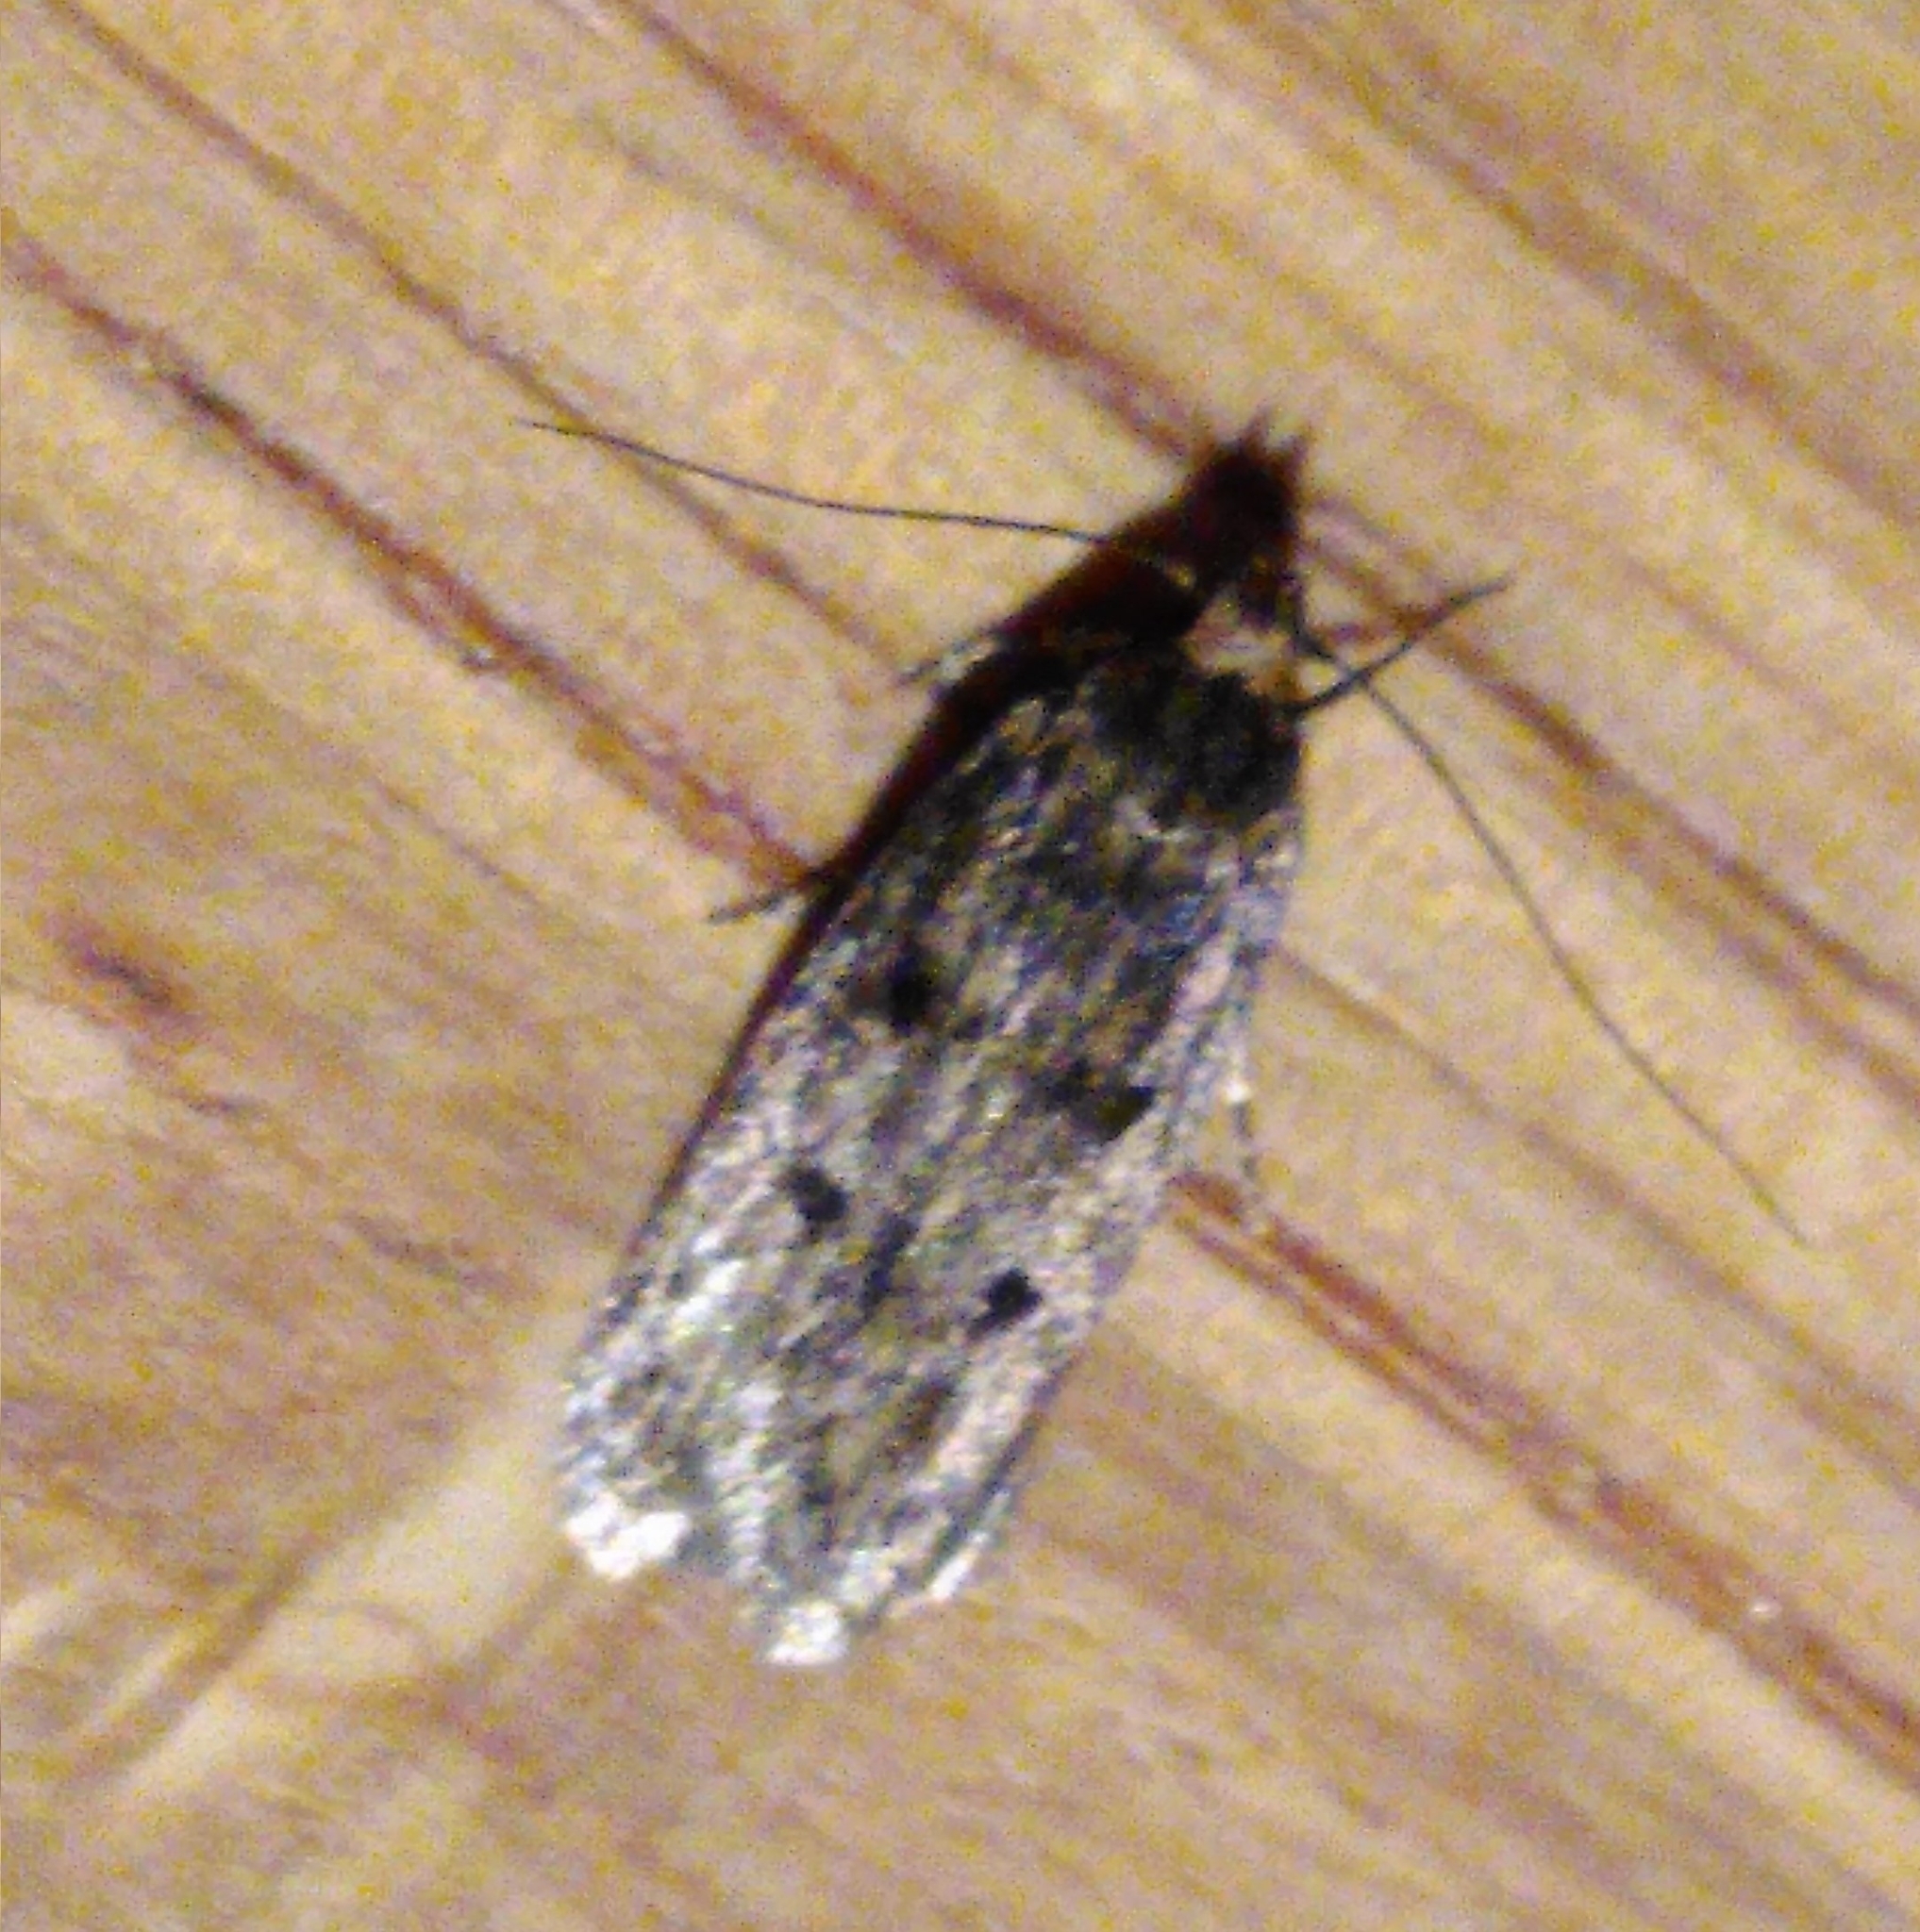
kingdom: Animalia
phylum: Arthropoda
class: Insecta
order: Lepidoptera
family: Oecophoridae
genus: Hofmannophila
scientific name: Hofmannophila pseudospretella
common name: Brown house moth
